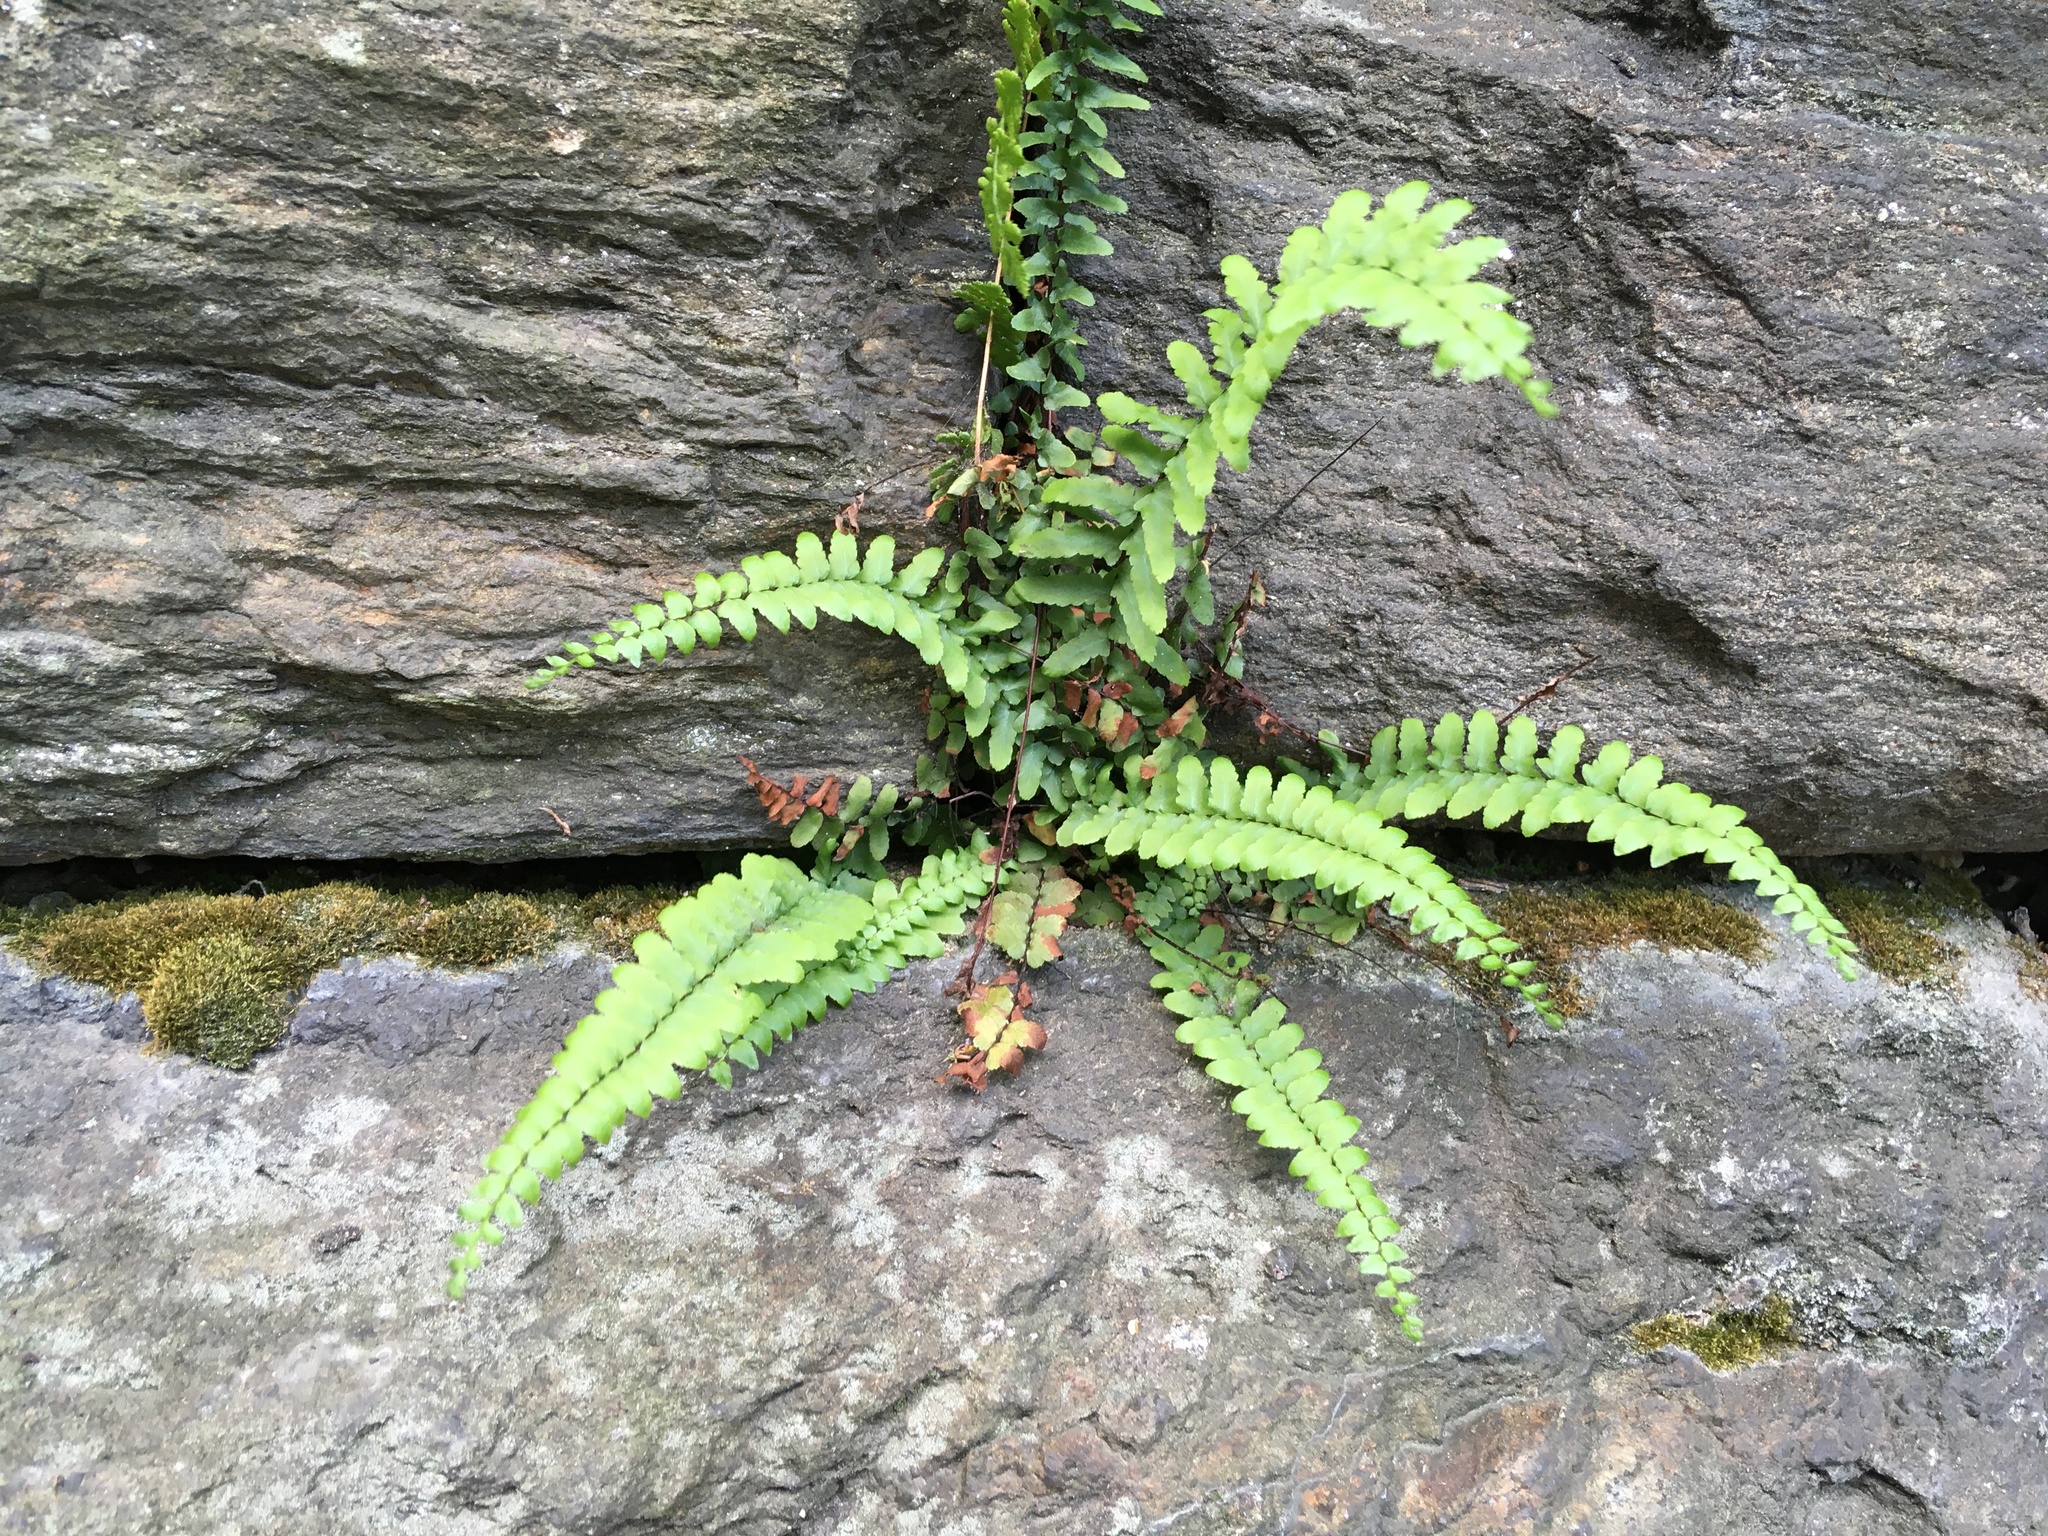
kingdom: Plantae
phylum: Tracheophyta
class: Polypodiopsida
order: Polypodiales
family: Aspleniaceae
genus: Asplenium
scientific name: Asplenium platyneuron
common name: Ebony spleenwort
